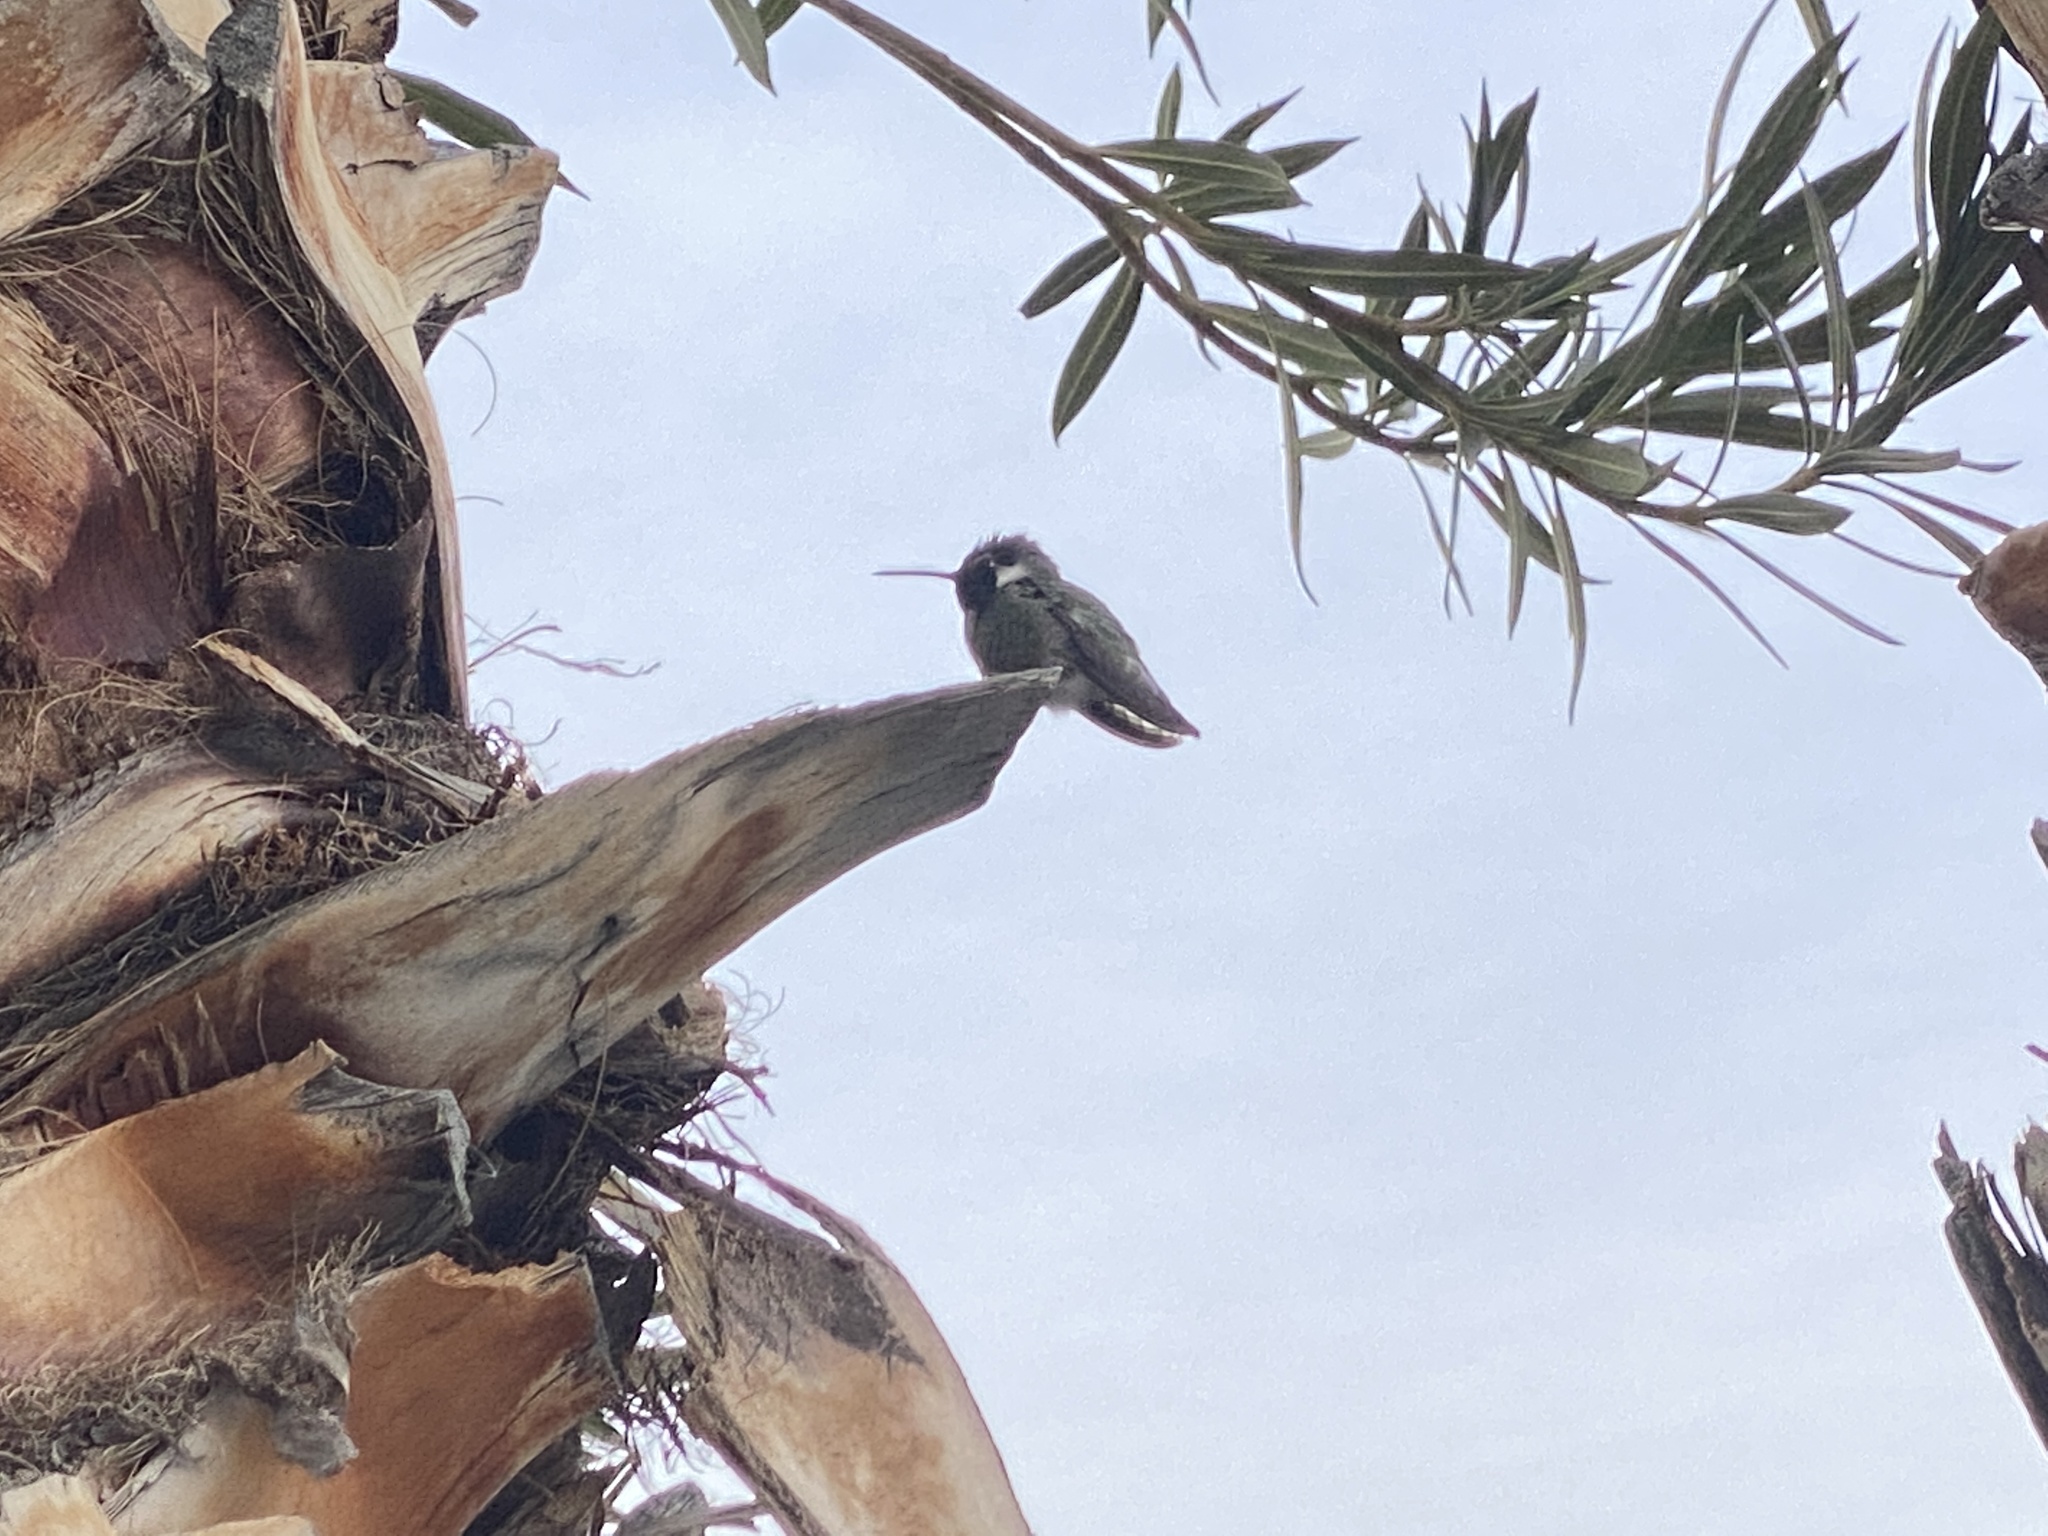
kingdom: Animalia
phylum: Chordata
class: Aves
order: Apodiformes
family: Trochilidae
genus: Calypte
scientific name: Calypte costae
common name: Costa's hummingbird
